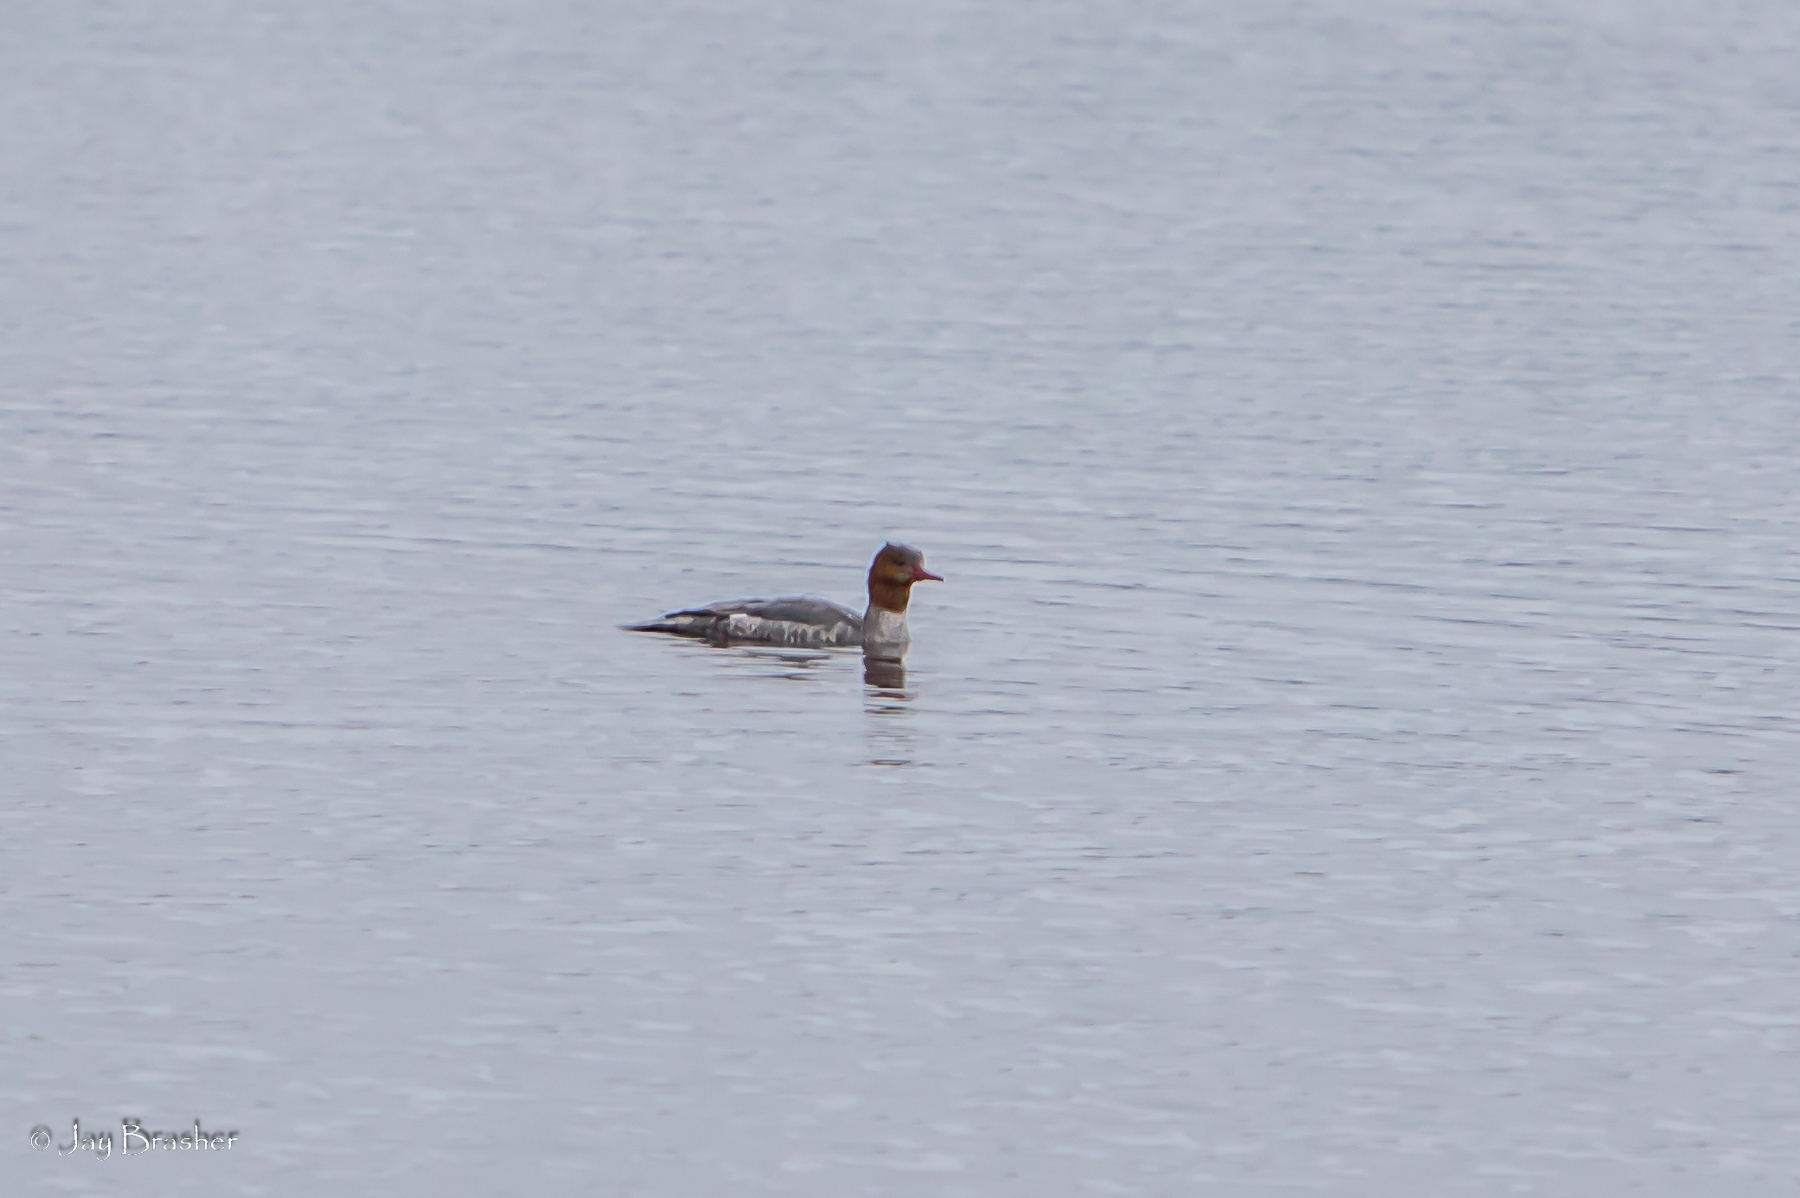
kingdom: Animalia
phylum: Chordata
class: Aves
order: Anseriformes
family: Anatidae
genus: Mergus
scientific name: Mergus merganser
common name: Common merganser
